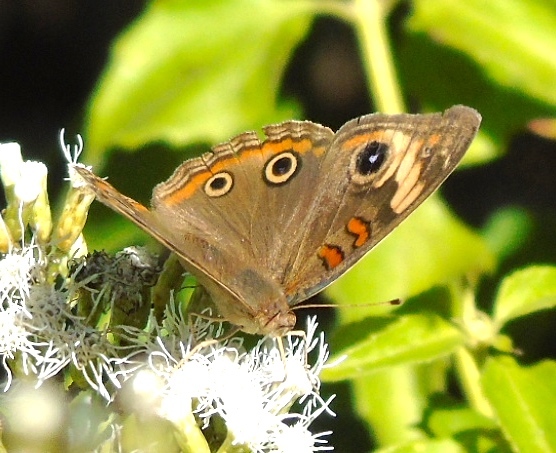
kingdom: Animalia
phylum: Arthropoda
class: Insecta
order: Lepidoptera
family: Nymphalidae
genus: Junonia
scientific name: Junonia
